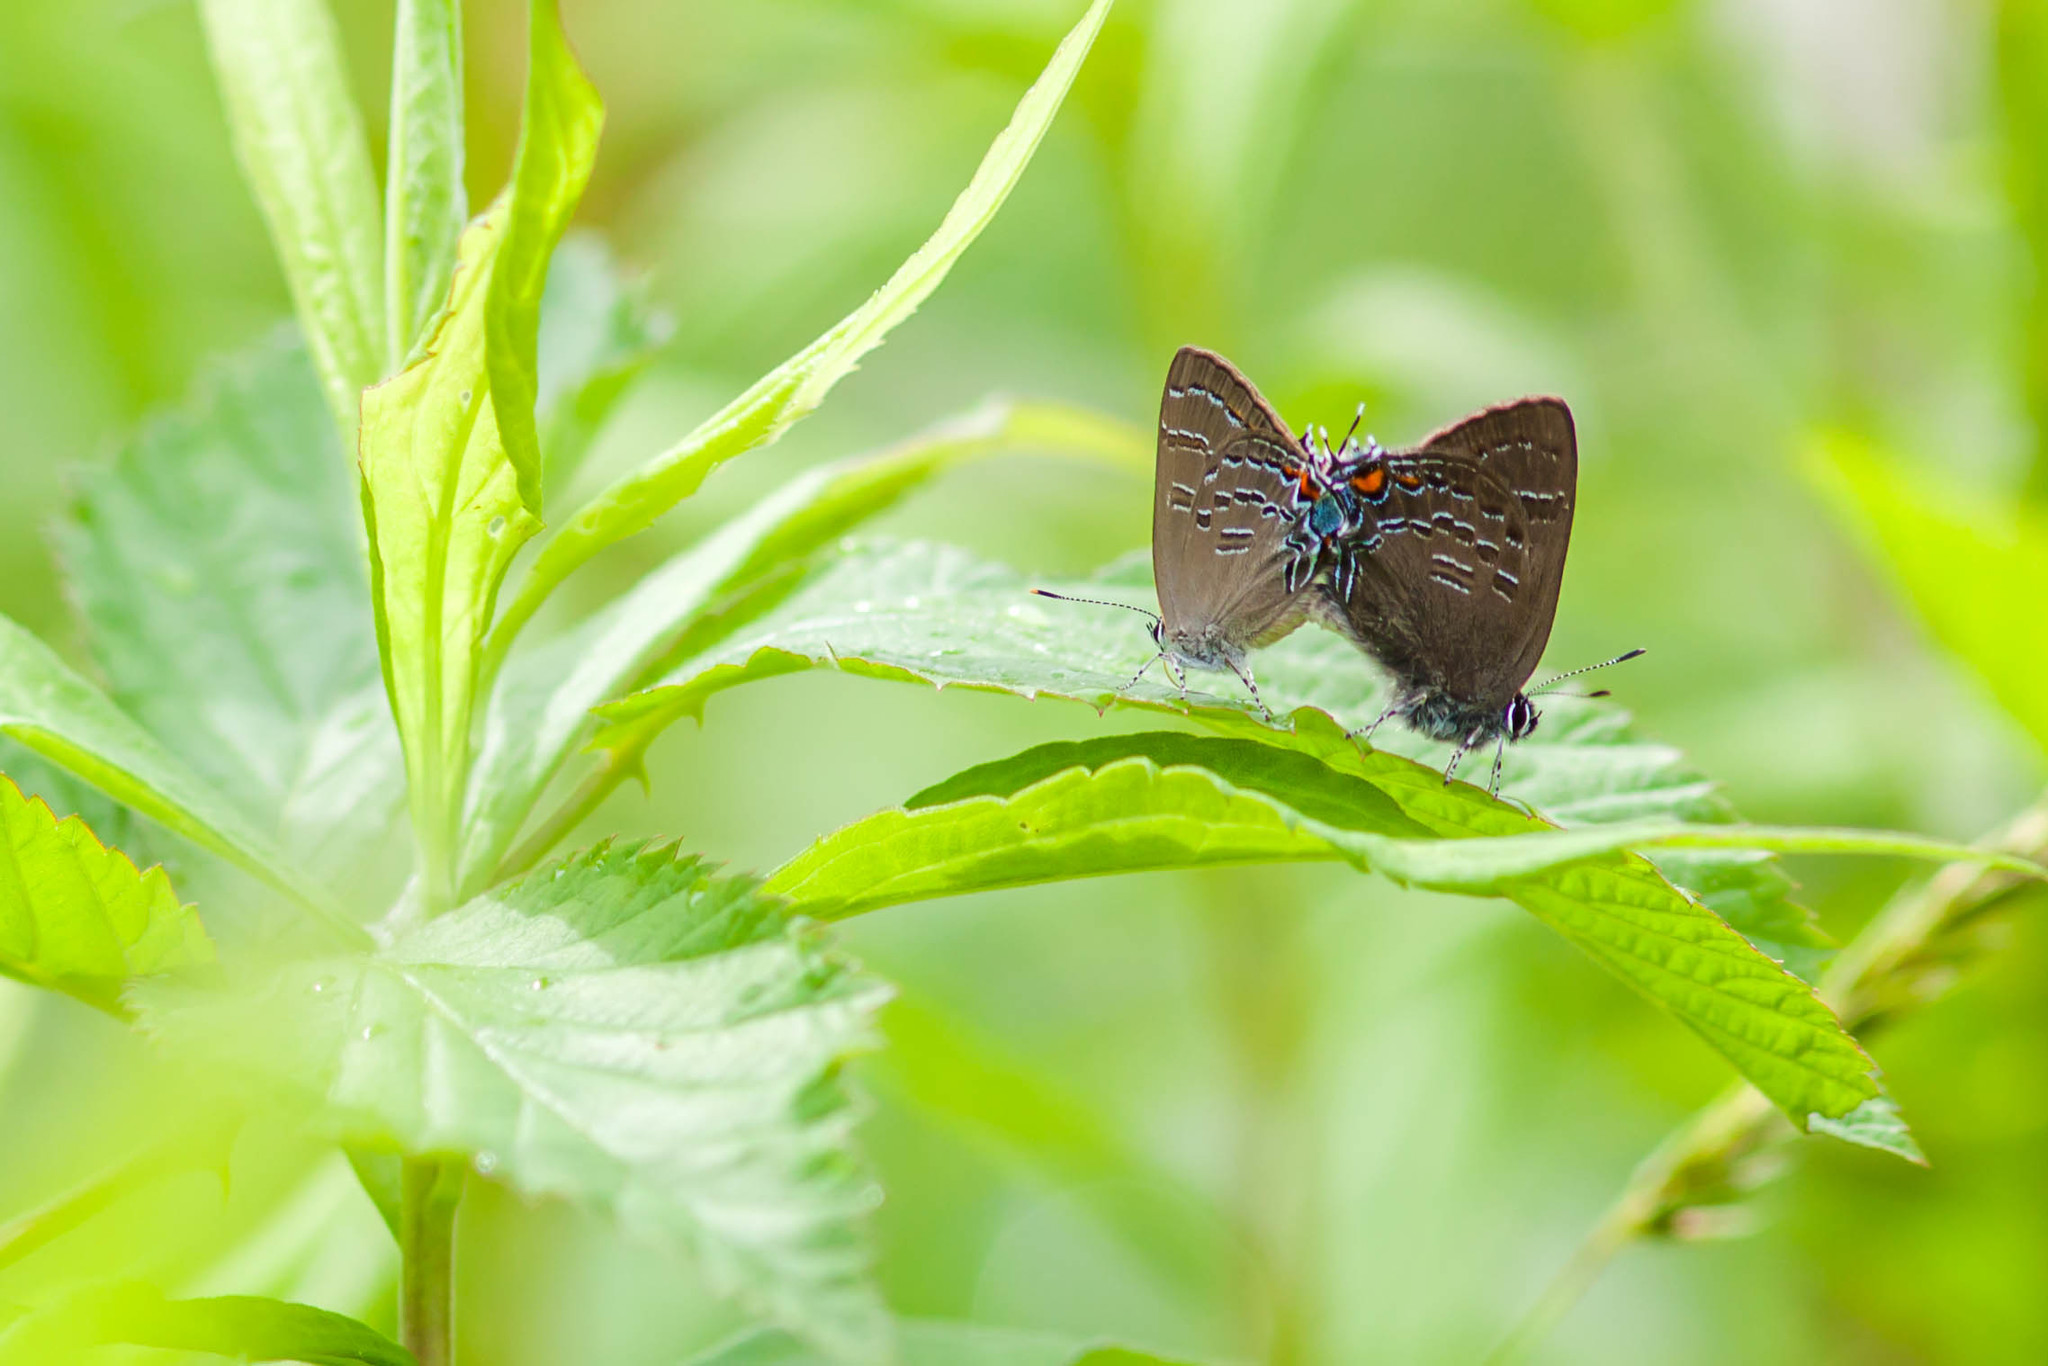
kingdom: Animalia
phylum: Arthropoda
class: Insecta
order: Lepidoptera
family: Lycaenidae
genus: Satyrium
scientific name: Satyrium calanus
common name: Banded hairstreak
